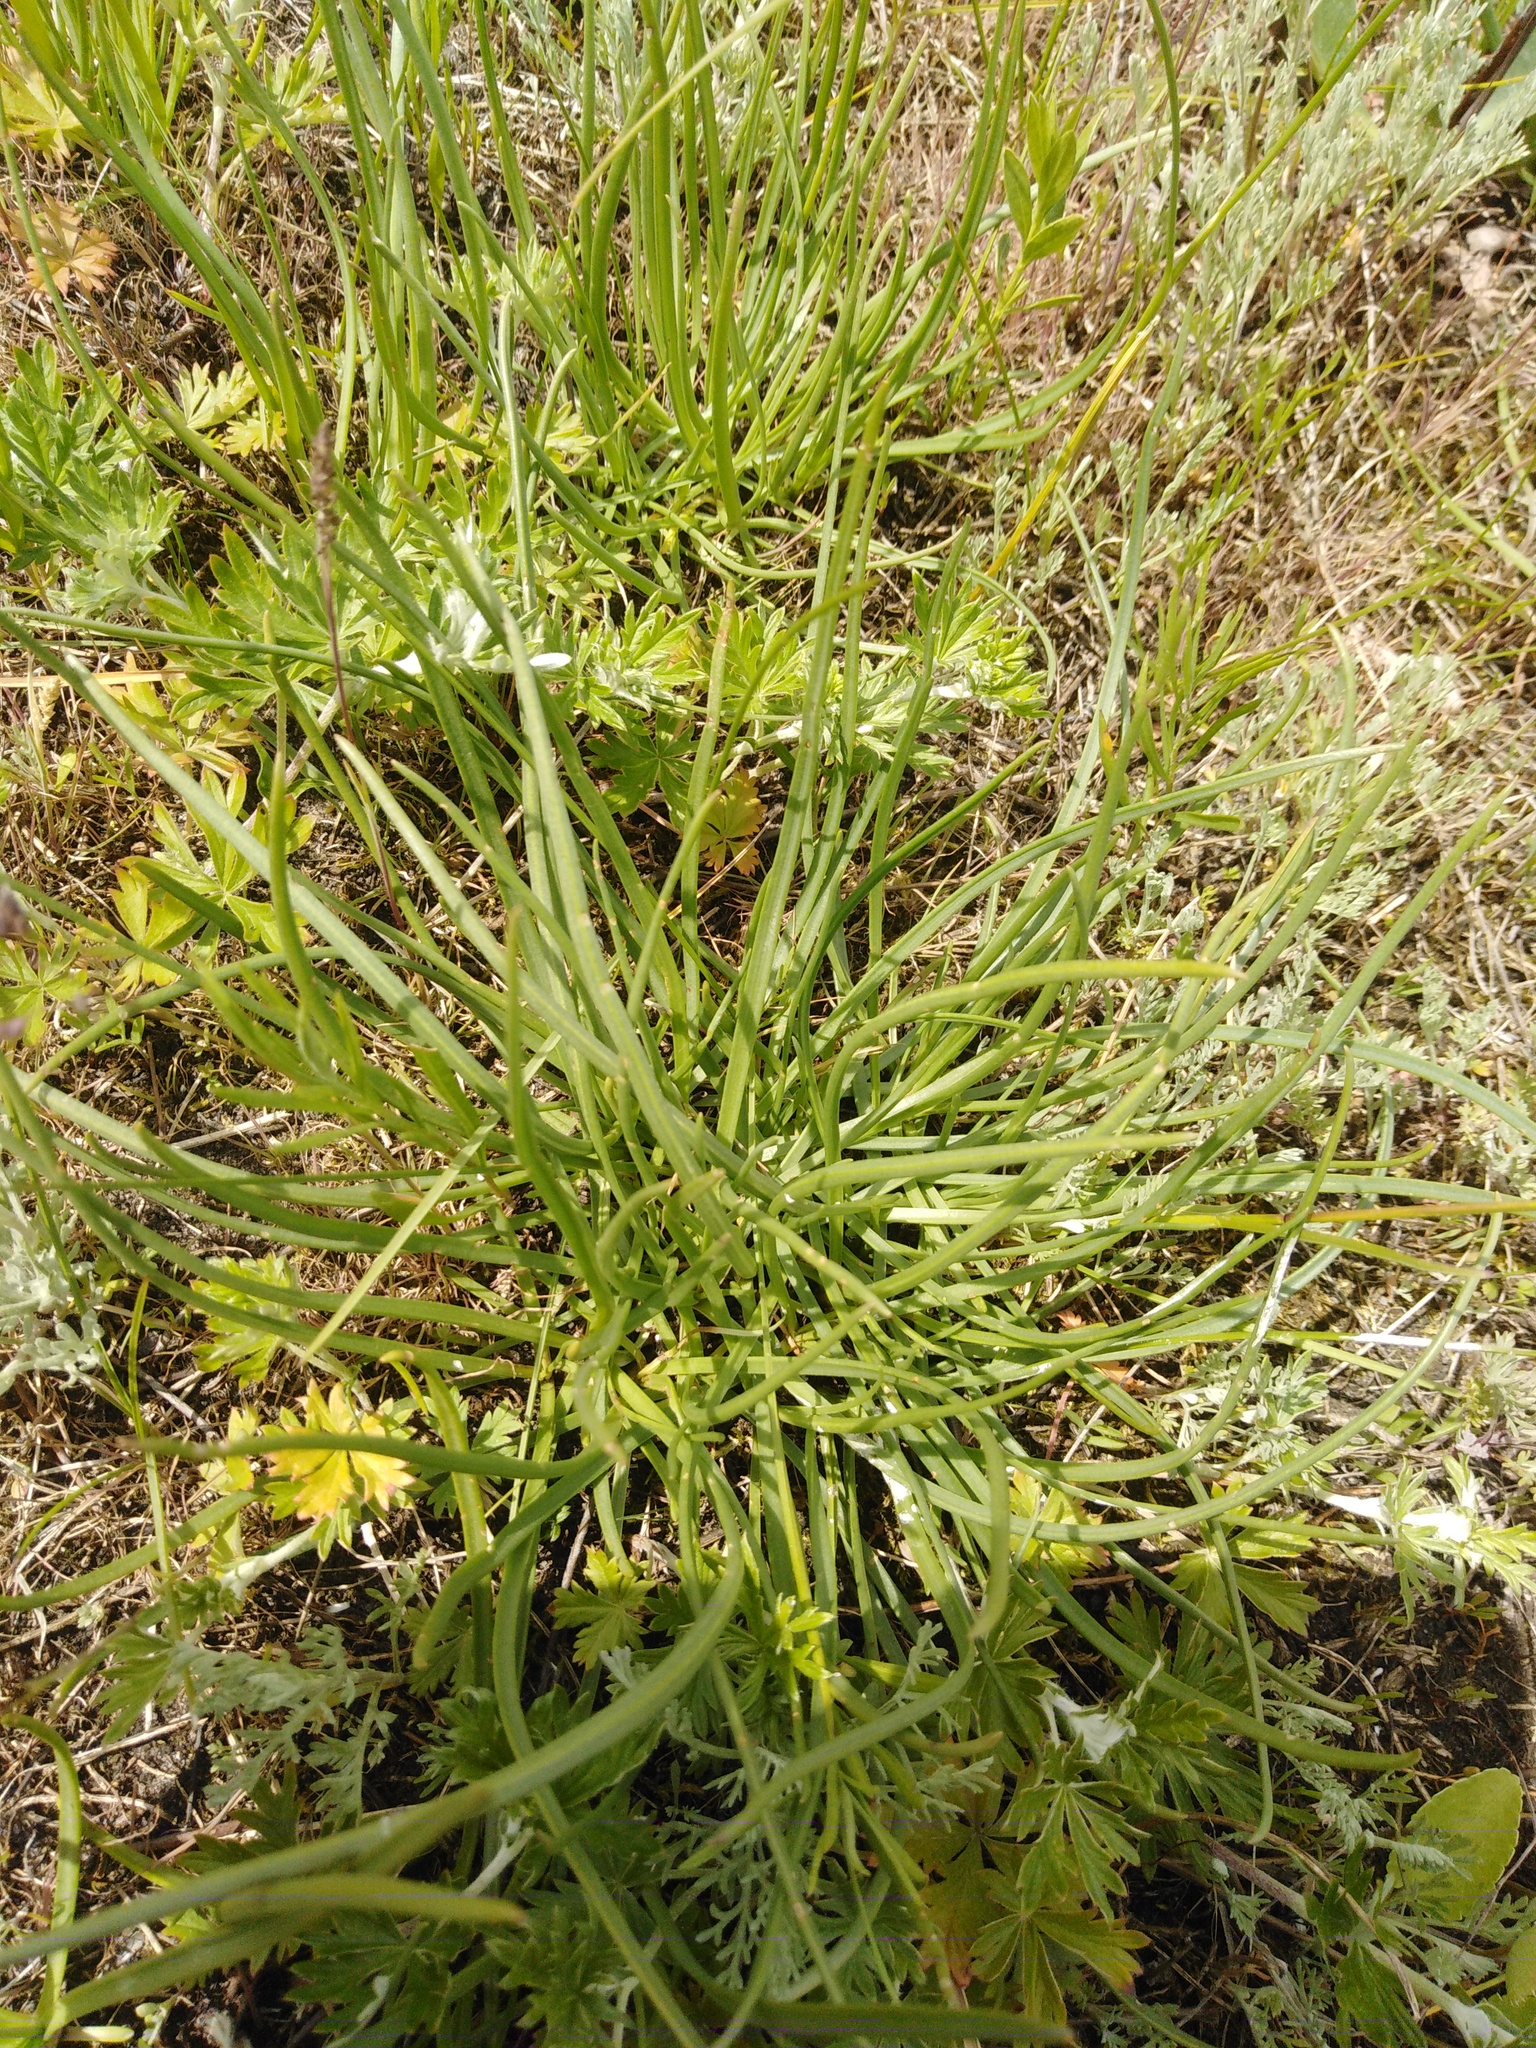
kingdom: Plantae
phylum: Tracheophyta
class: Magnoliopsida
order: Lamiales
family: Plantaginaceae
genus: Plantago
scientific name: Plantago salsa
